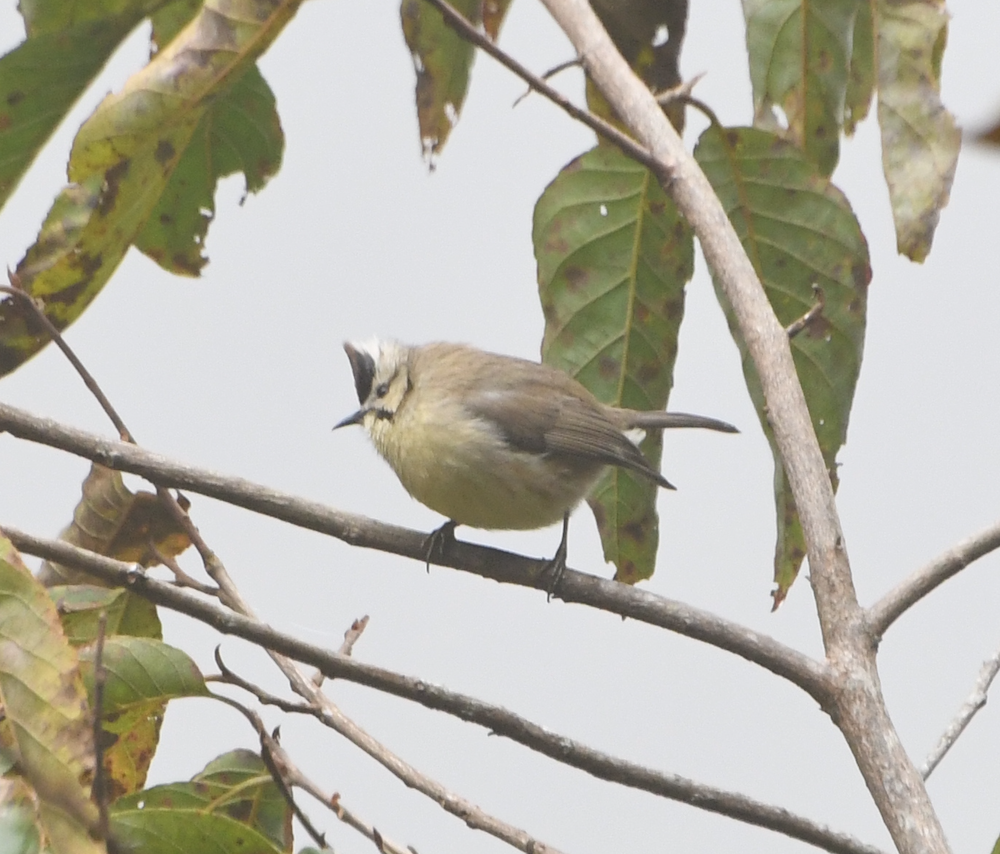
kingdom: Animalia
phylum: Chordata
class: Aves
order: Passeriformes
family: Zosteropidae
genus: Yuhina
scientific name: Yuhina brunneiceps
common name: Taiwan yuhina
